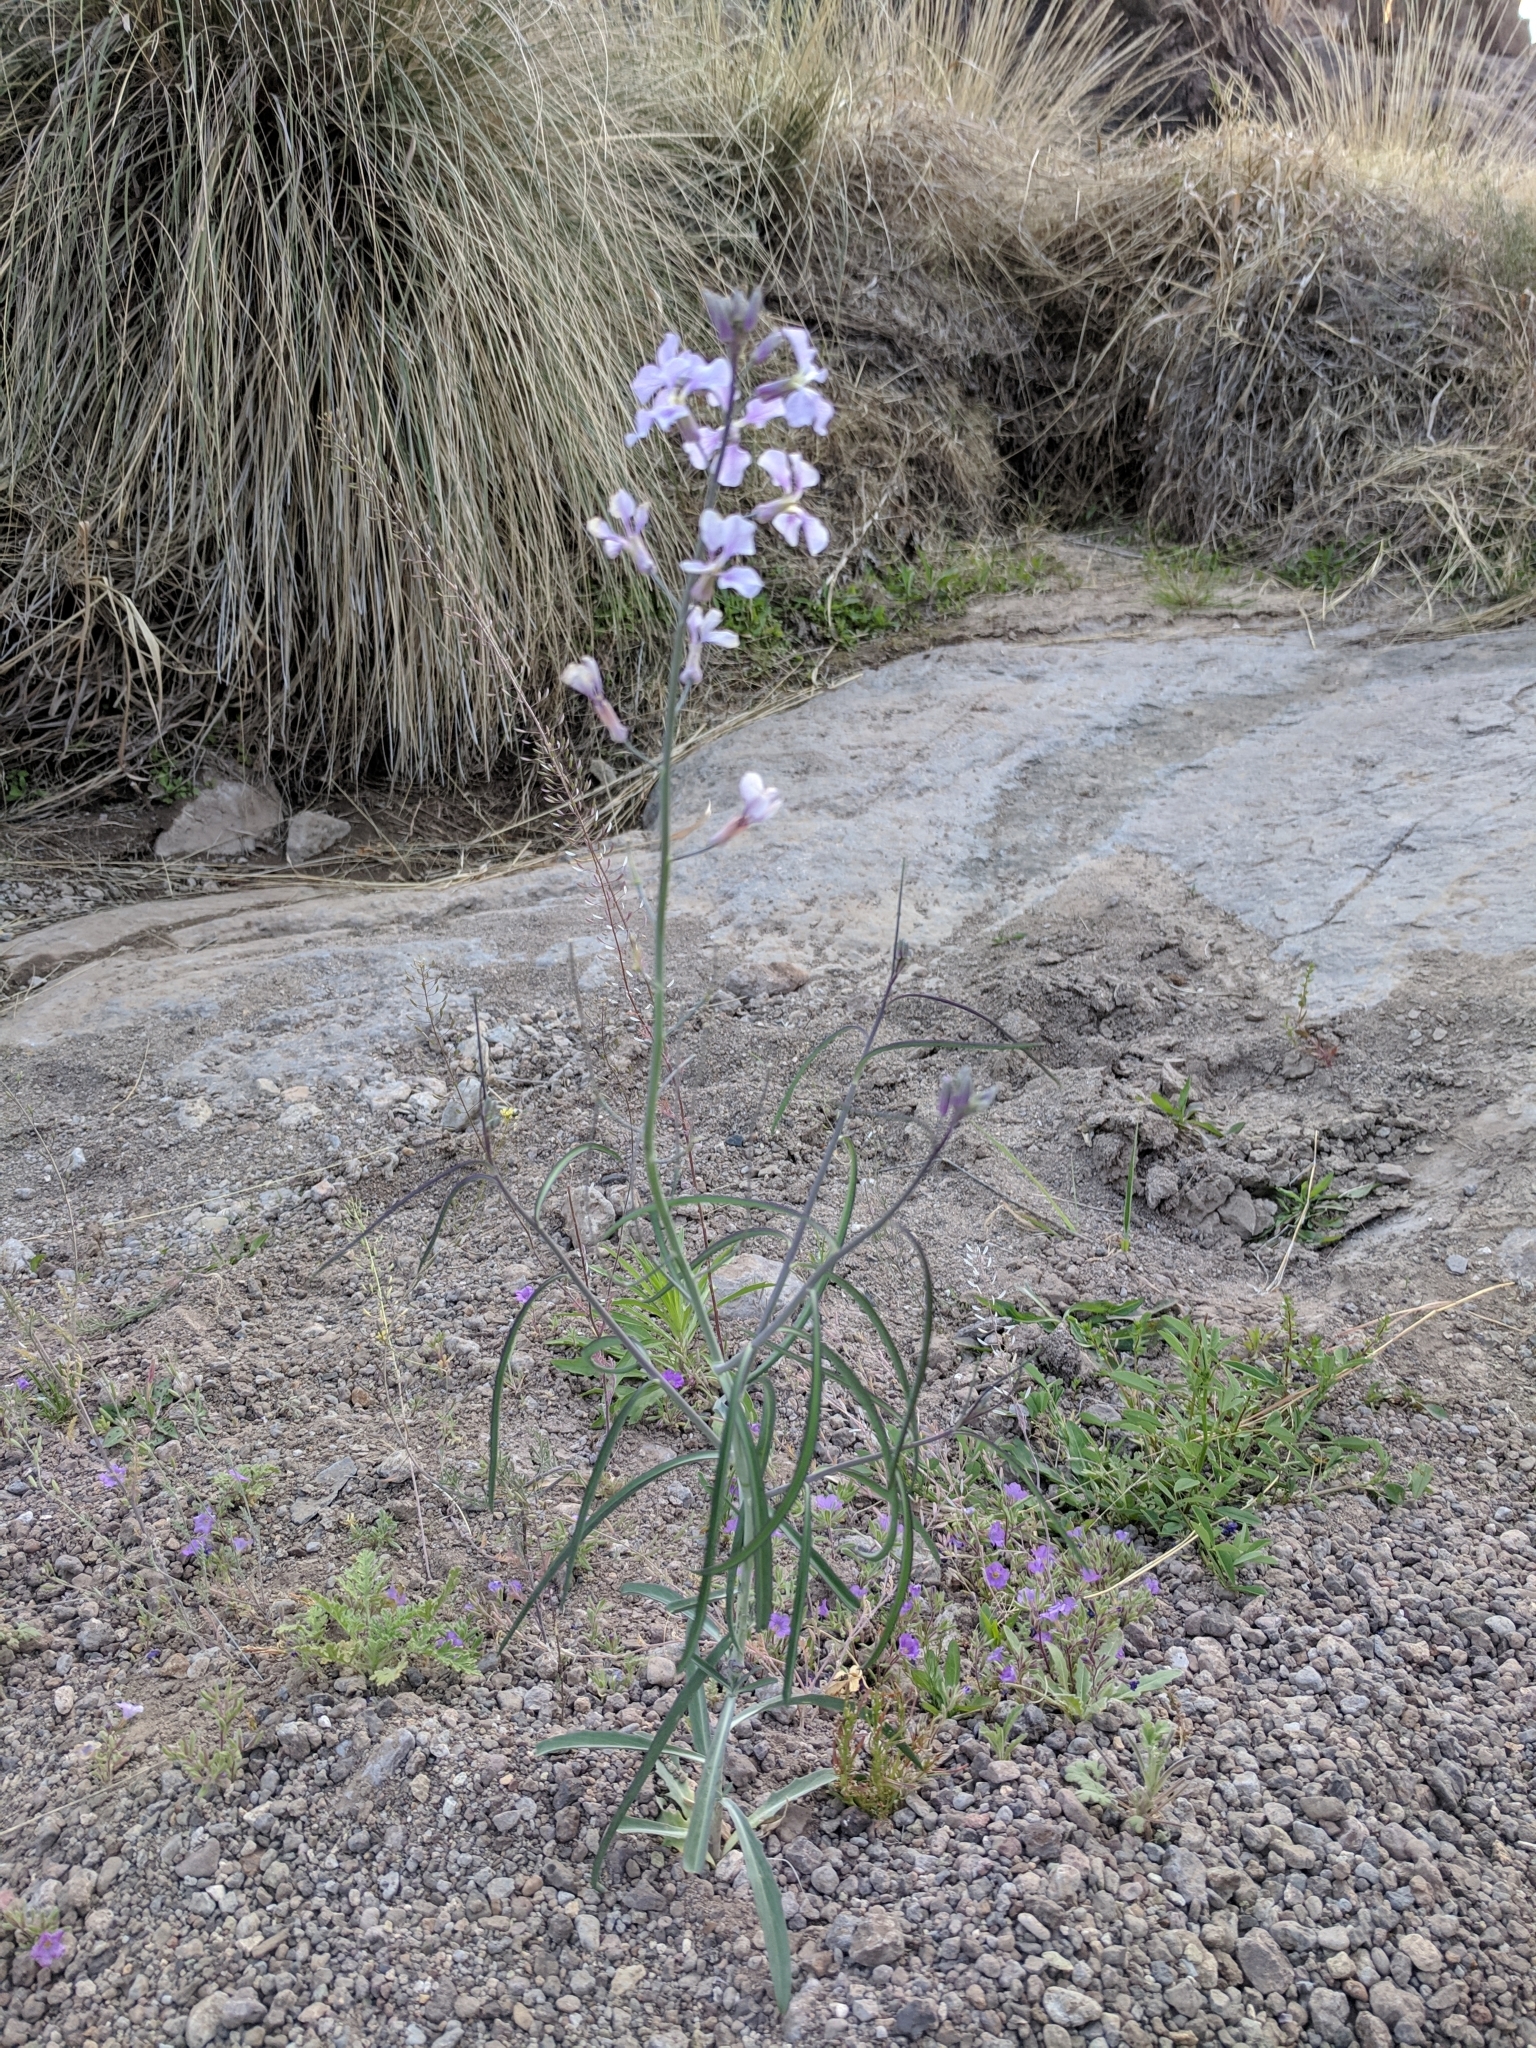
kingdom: Plantae
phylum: Tracheophyta
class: Magnoliopsida
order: Brassicales
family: Brassicaceae
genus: Hesperidanthus
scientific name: Hesperidanthus linearifolius
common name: Slim-leaf plains mustard
